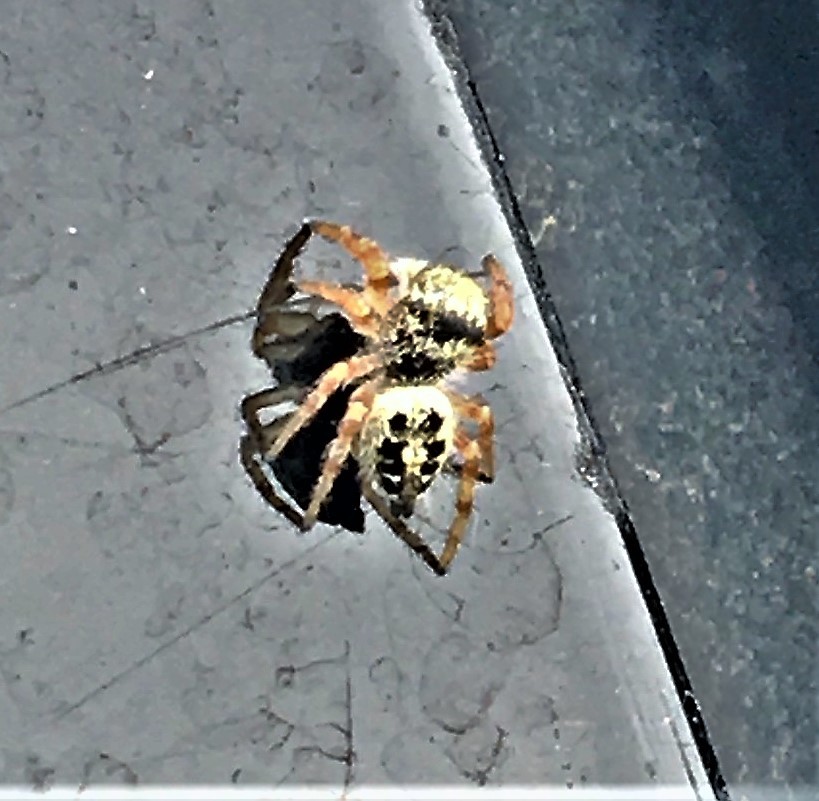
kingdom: Animalia
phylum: Arthropoda
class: Arachnida
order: Araneae
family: Salticidae
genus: Phidippus
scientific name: Phidippus princeps
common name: Grayish jumping spider
